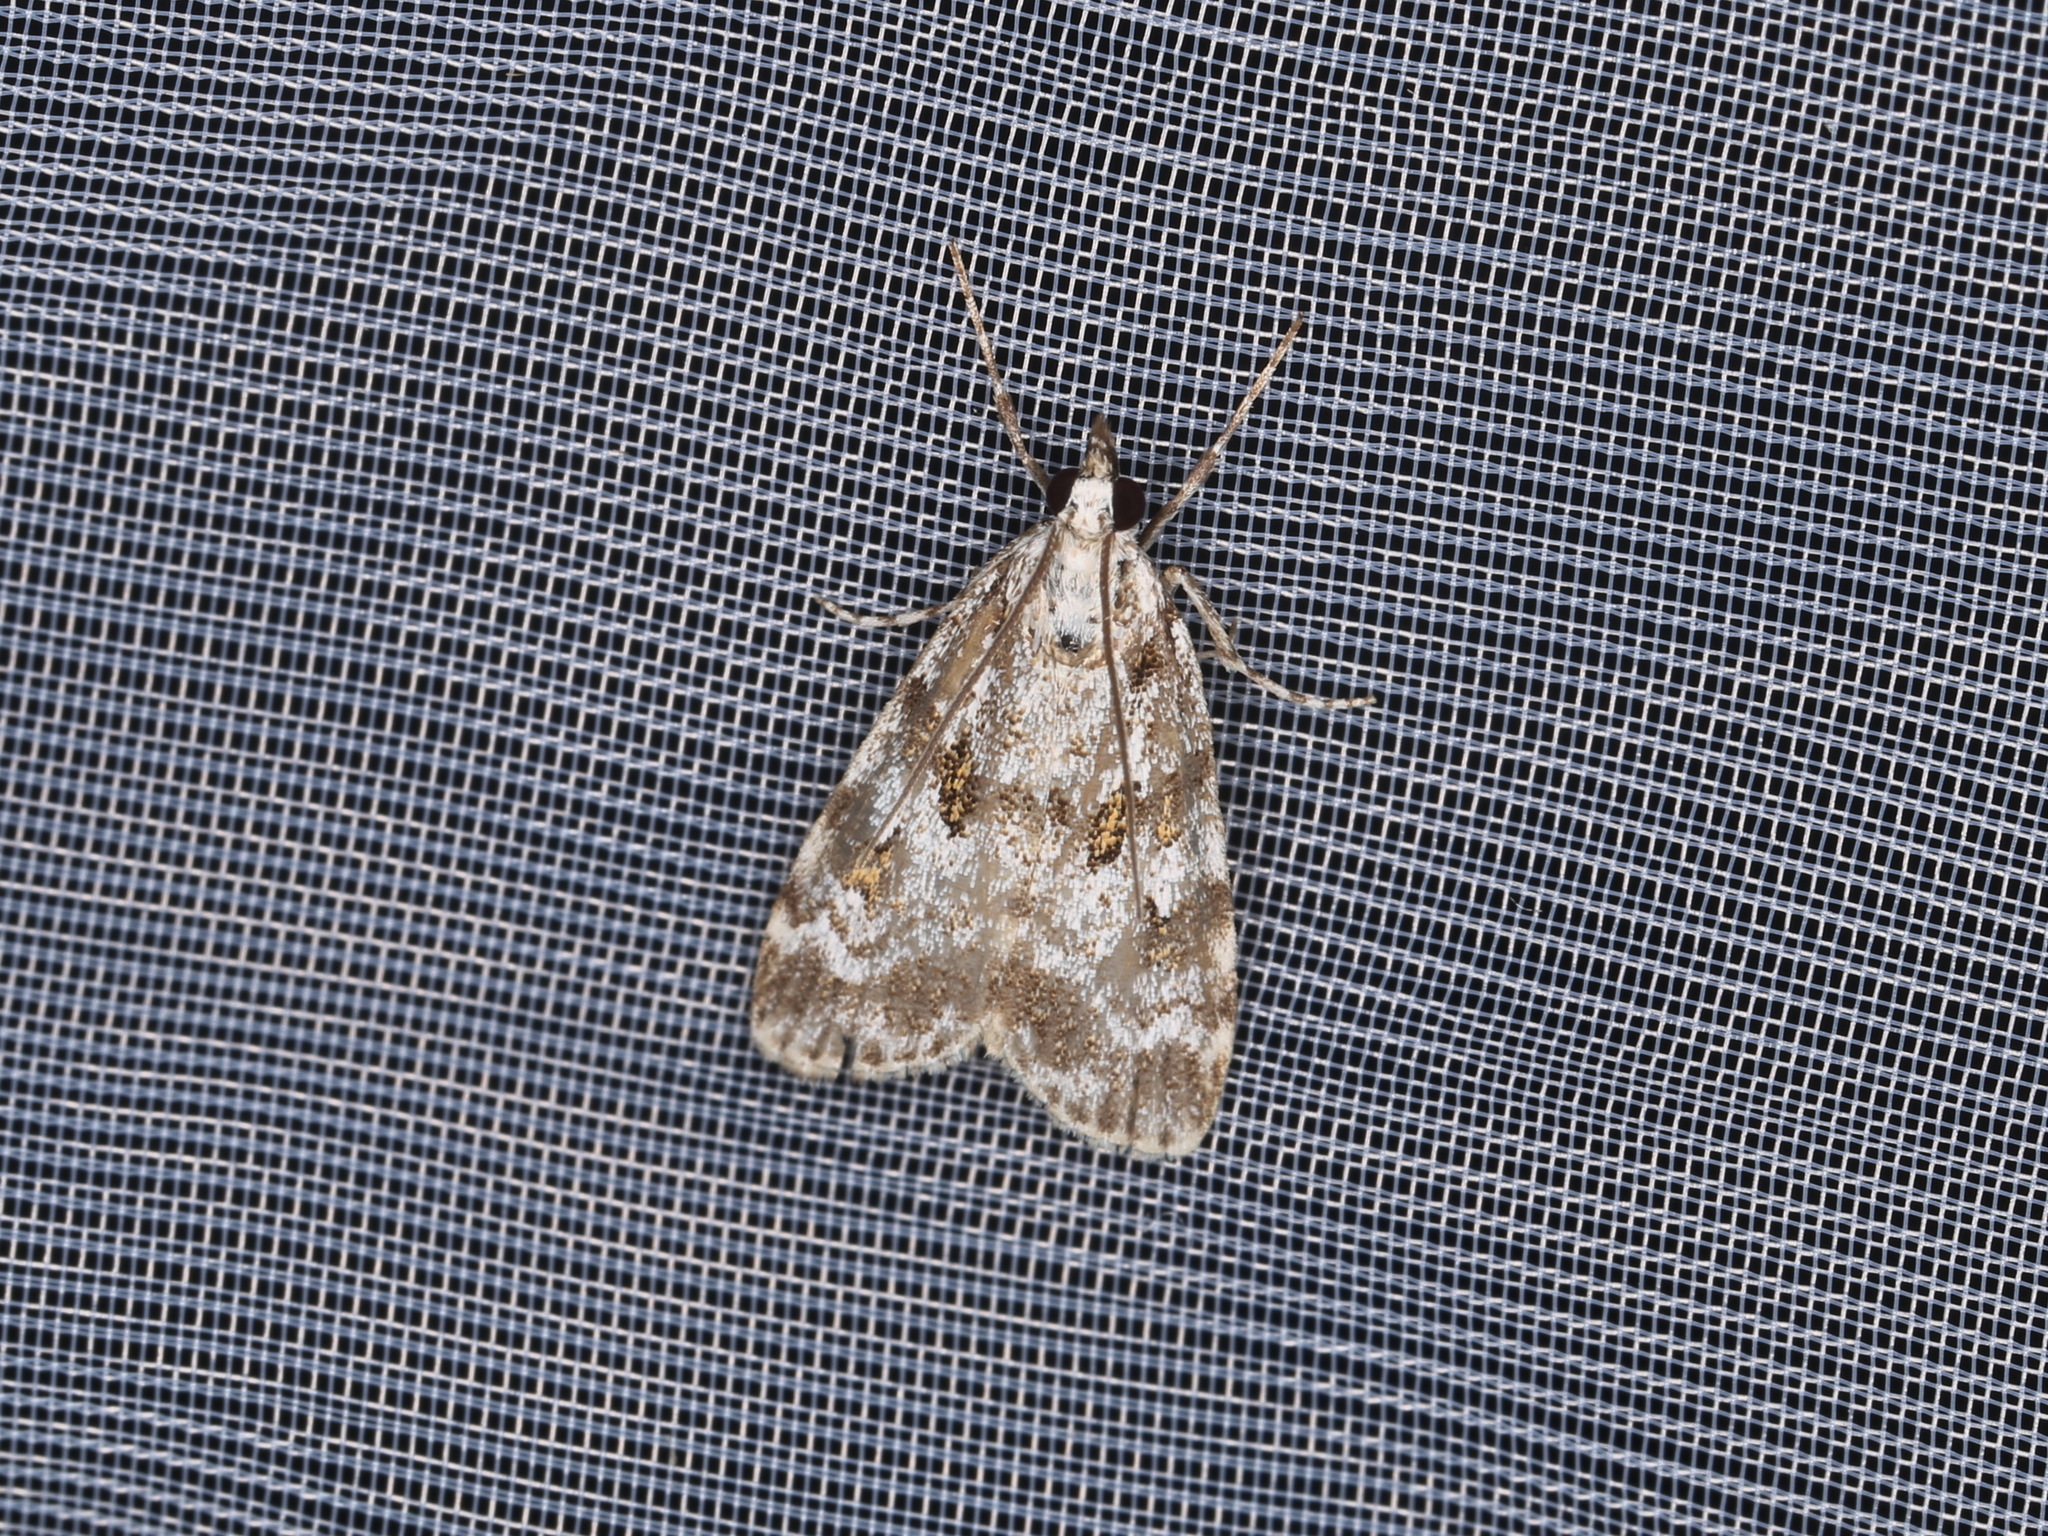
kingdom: Animalia
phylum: Arthropoda
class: Insecta
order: Lepidoptera
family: Crambidae
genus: Scoparia
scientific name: Scoparia pyralella
